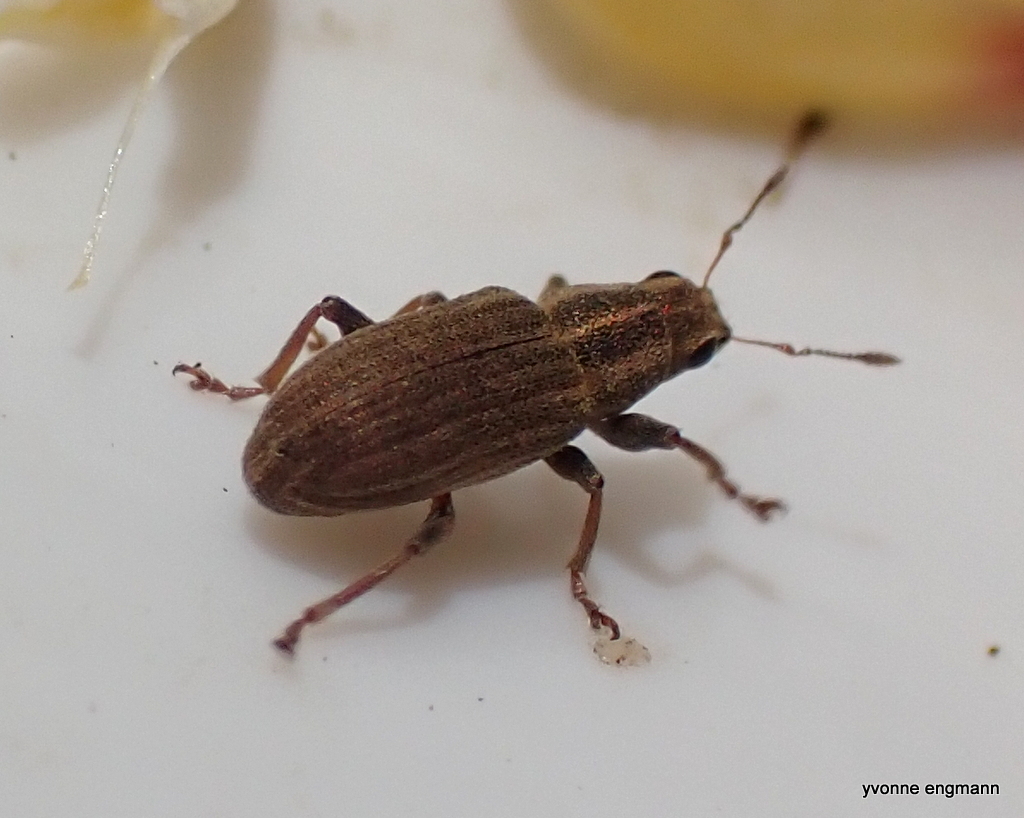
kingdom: Animalia
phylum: Arthropoda
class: Insecta
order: Coleoptera
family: Curculionidae
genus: Sitona
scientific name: Sitona lineatus
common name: Weevil
